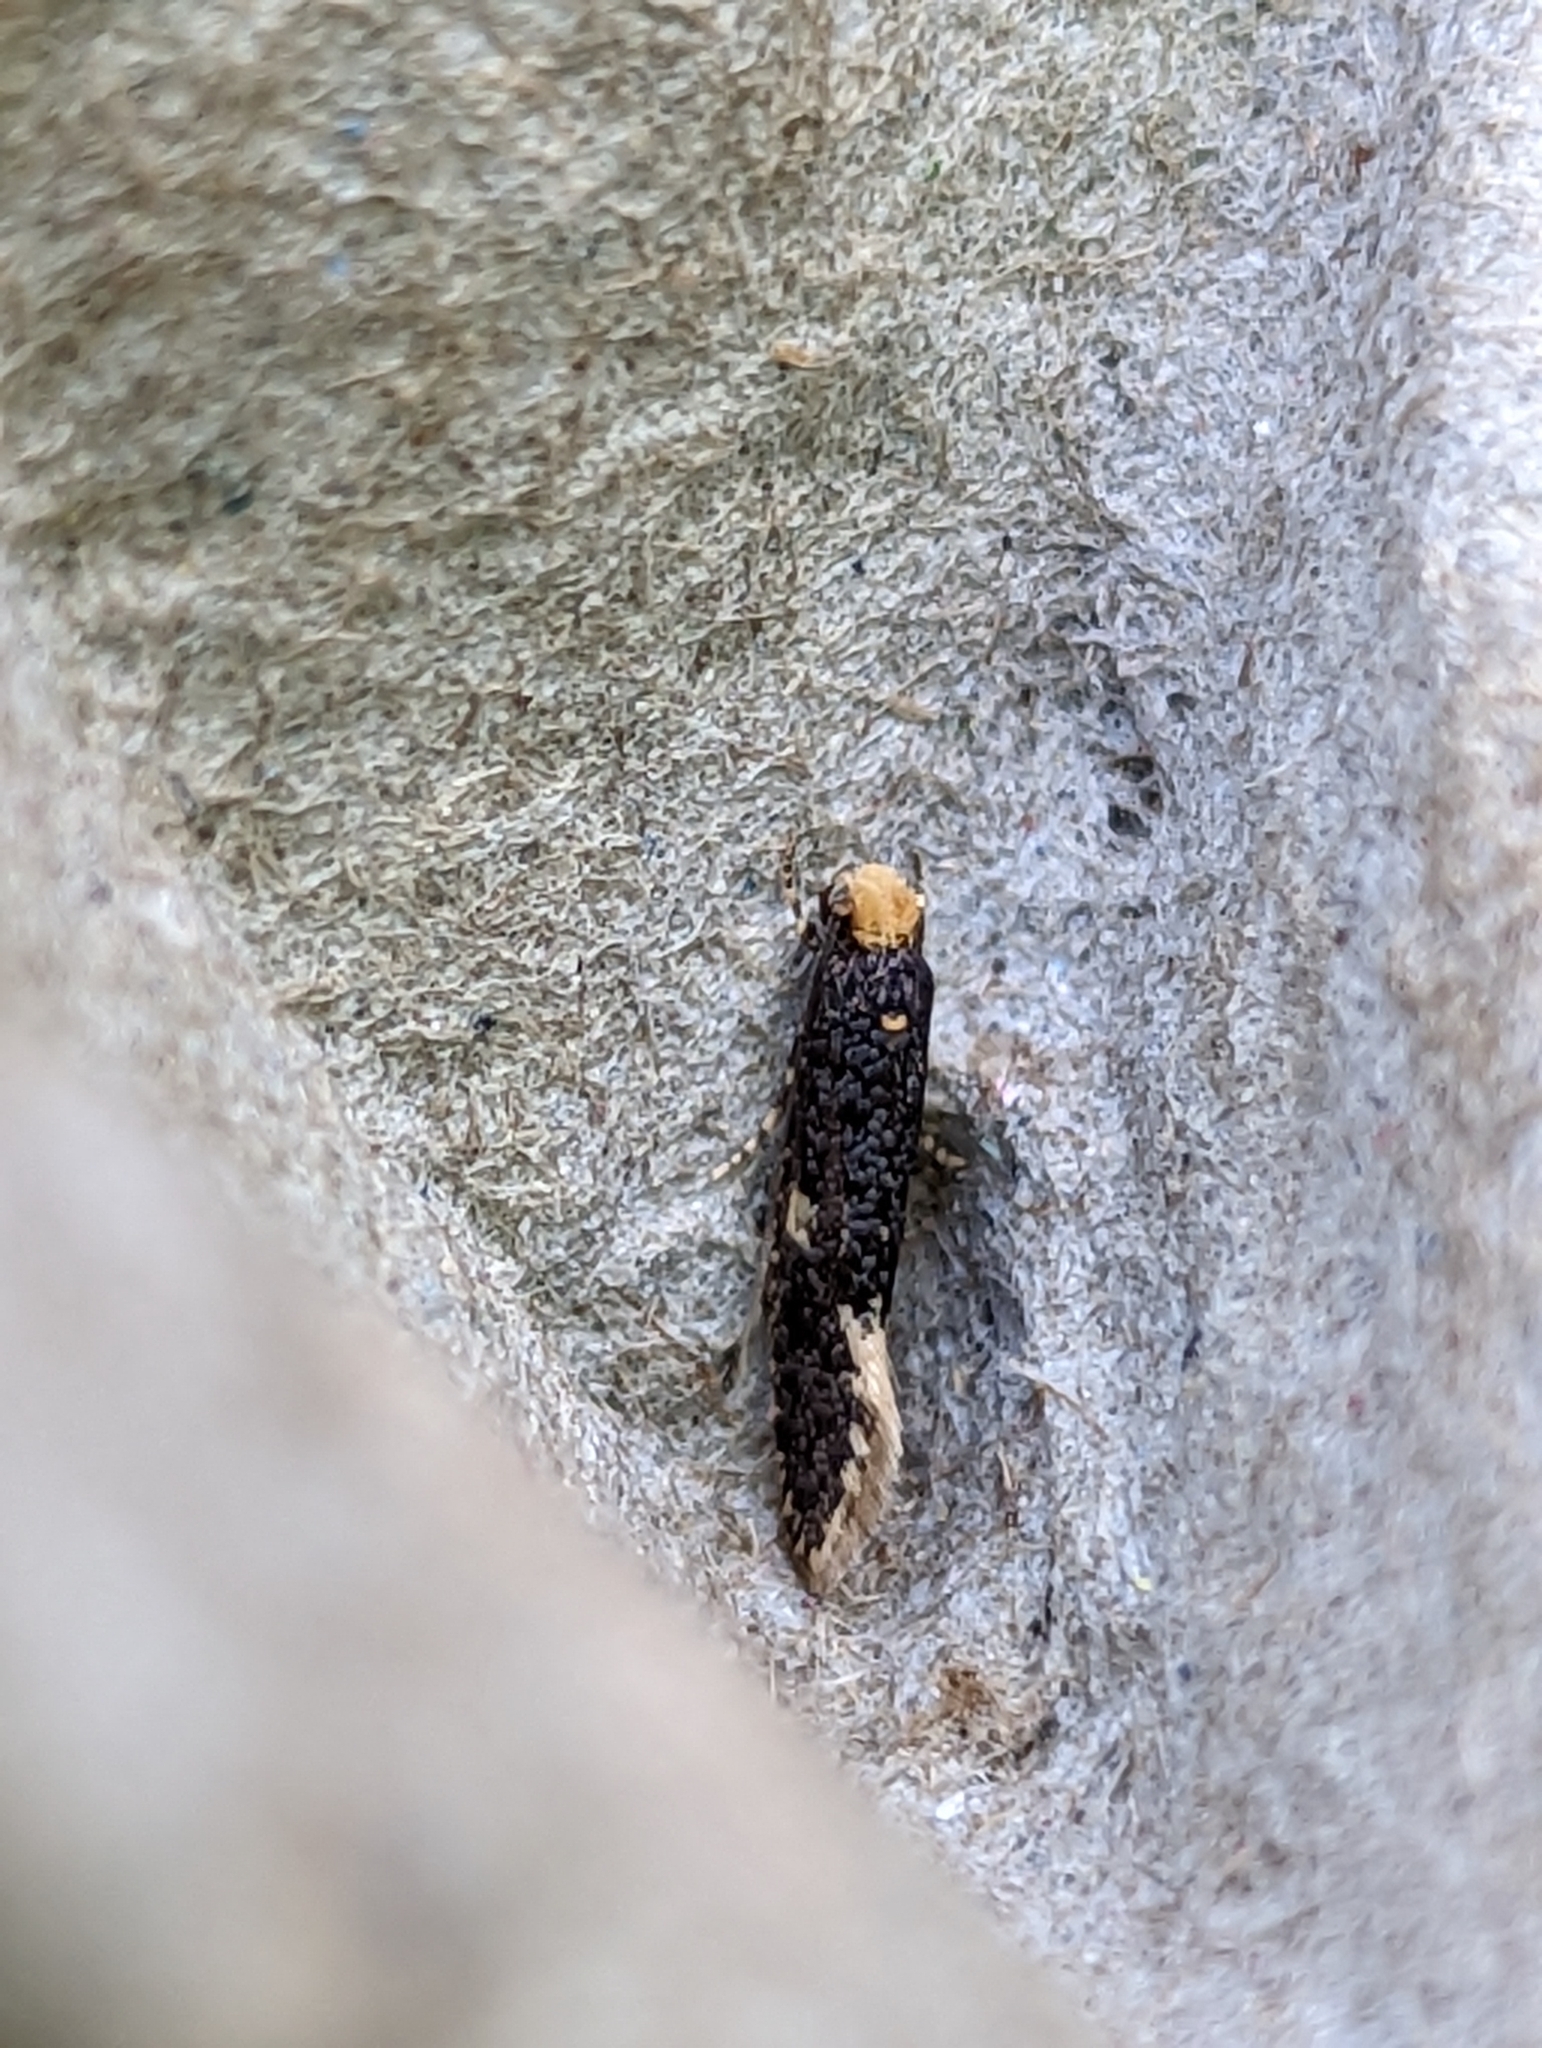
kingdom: Animalia
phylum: Arthropoda
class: Insecta
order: Lepidoptera
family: Tineidae
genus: Monopis
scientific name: Monopis weaverella
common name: Carrion moth
